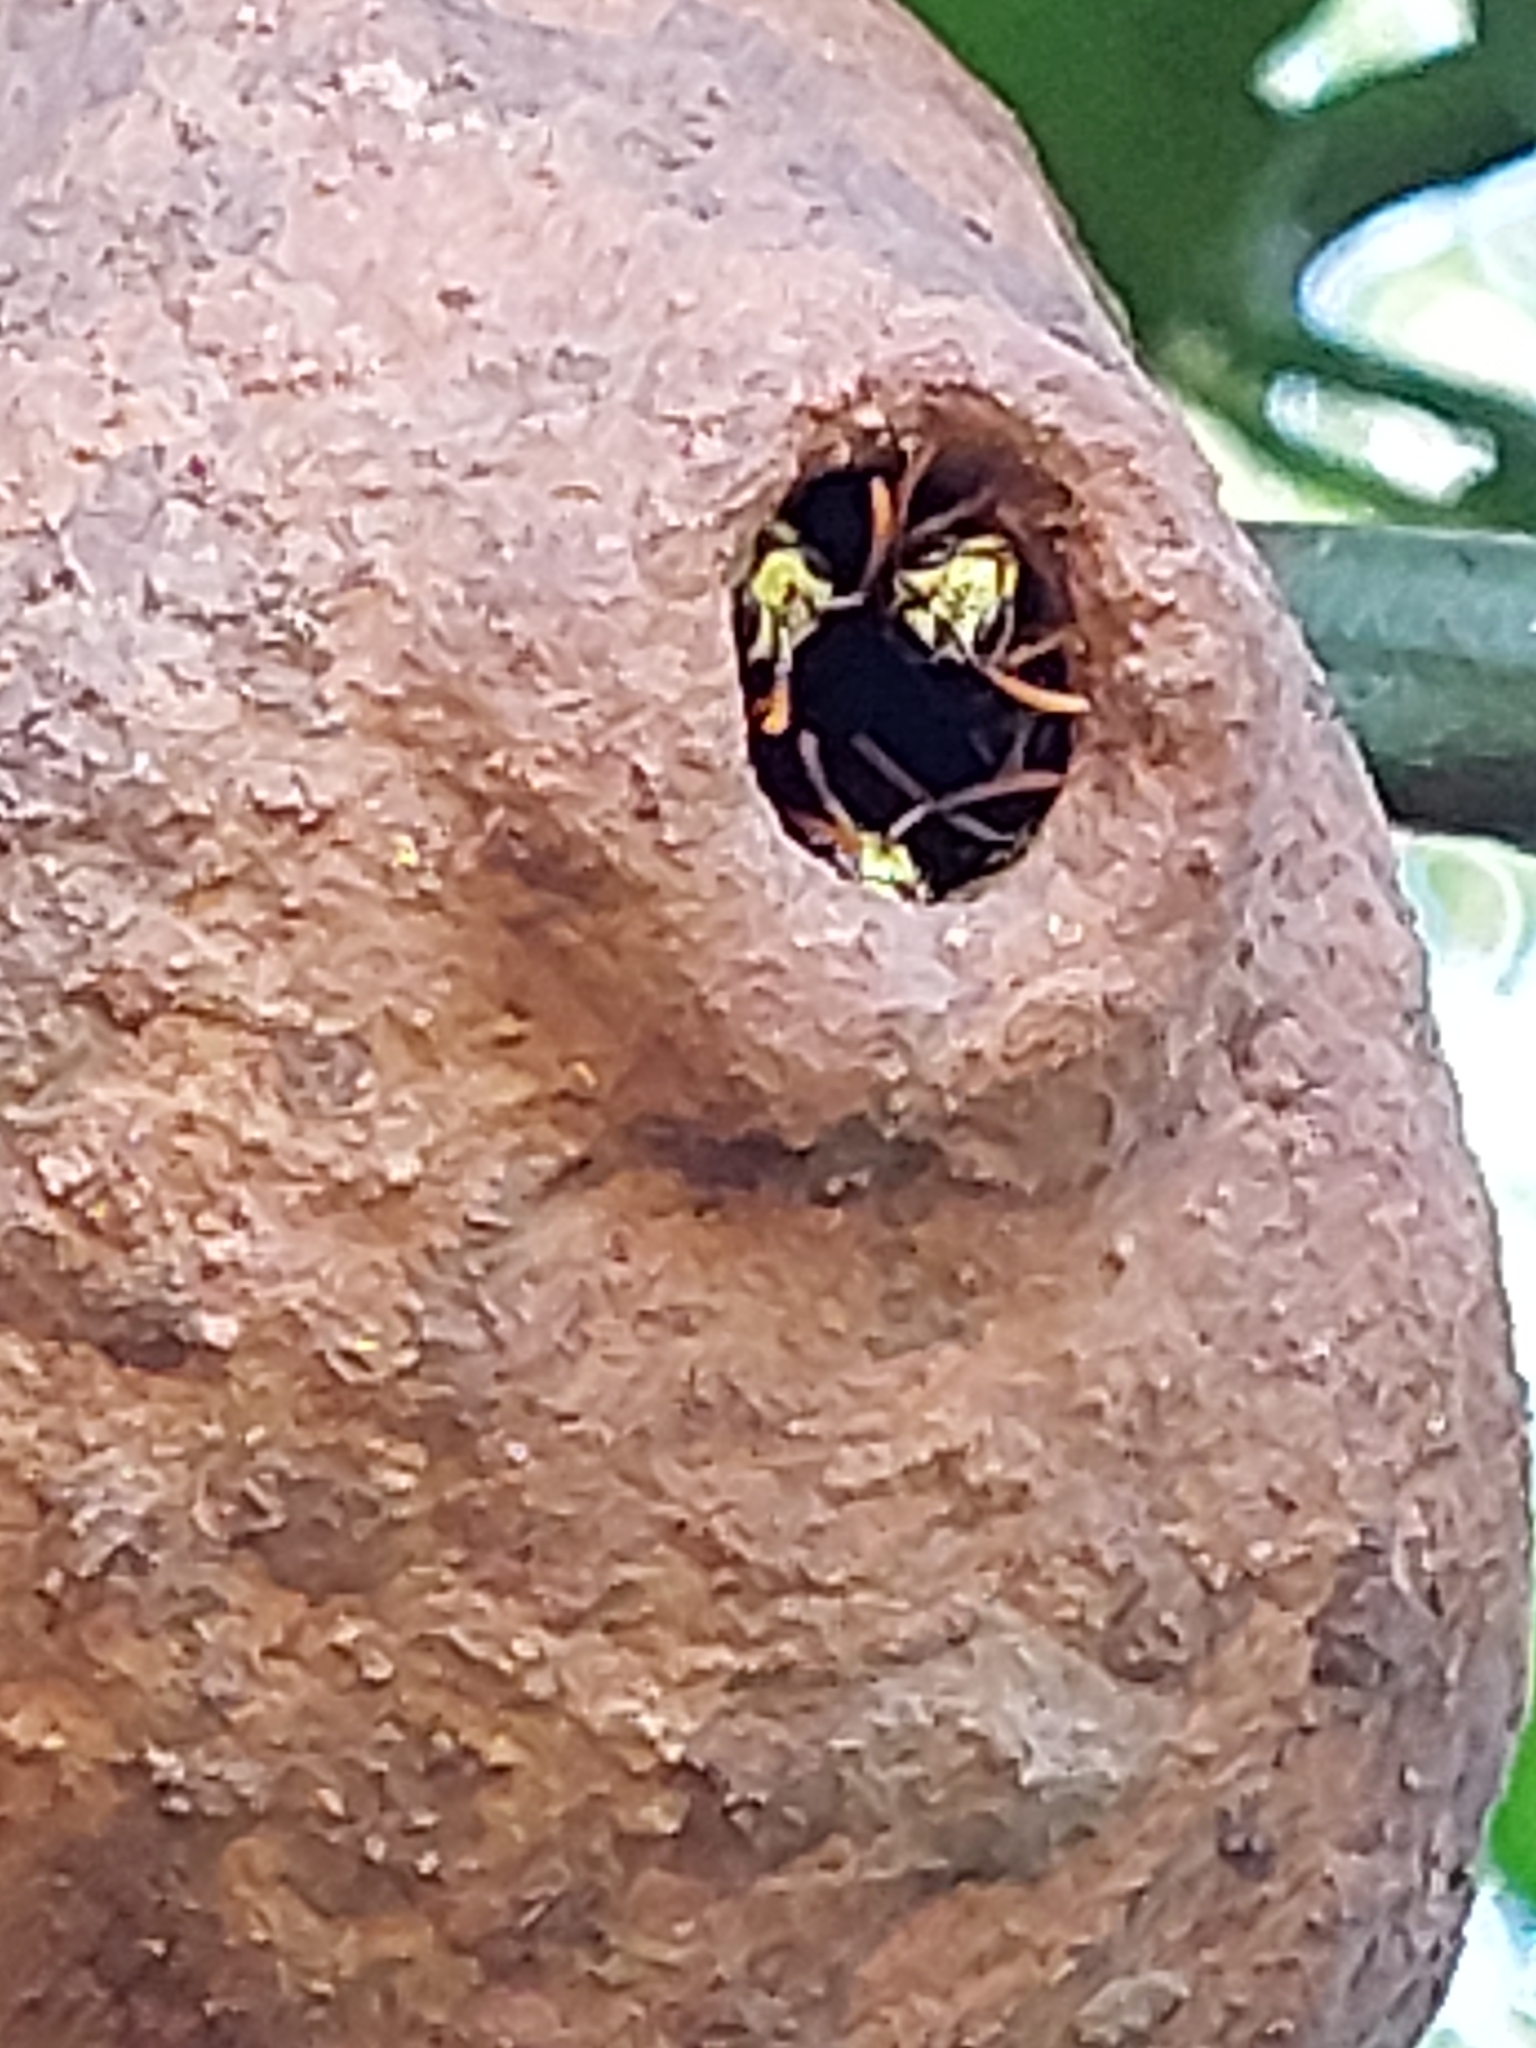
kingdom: Animalia
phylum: Arthropoda
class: Insecta
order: Hymenoptera
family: Eumenidae
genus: Polybia
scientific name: Polybia emaciata
